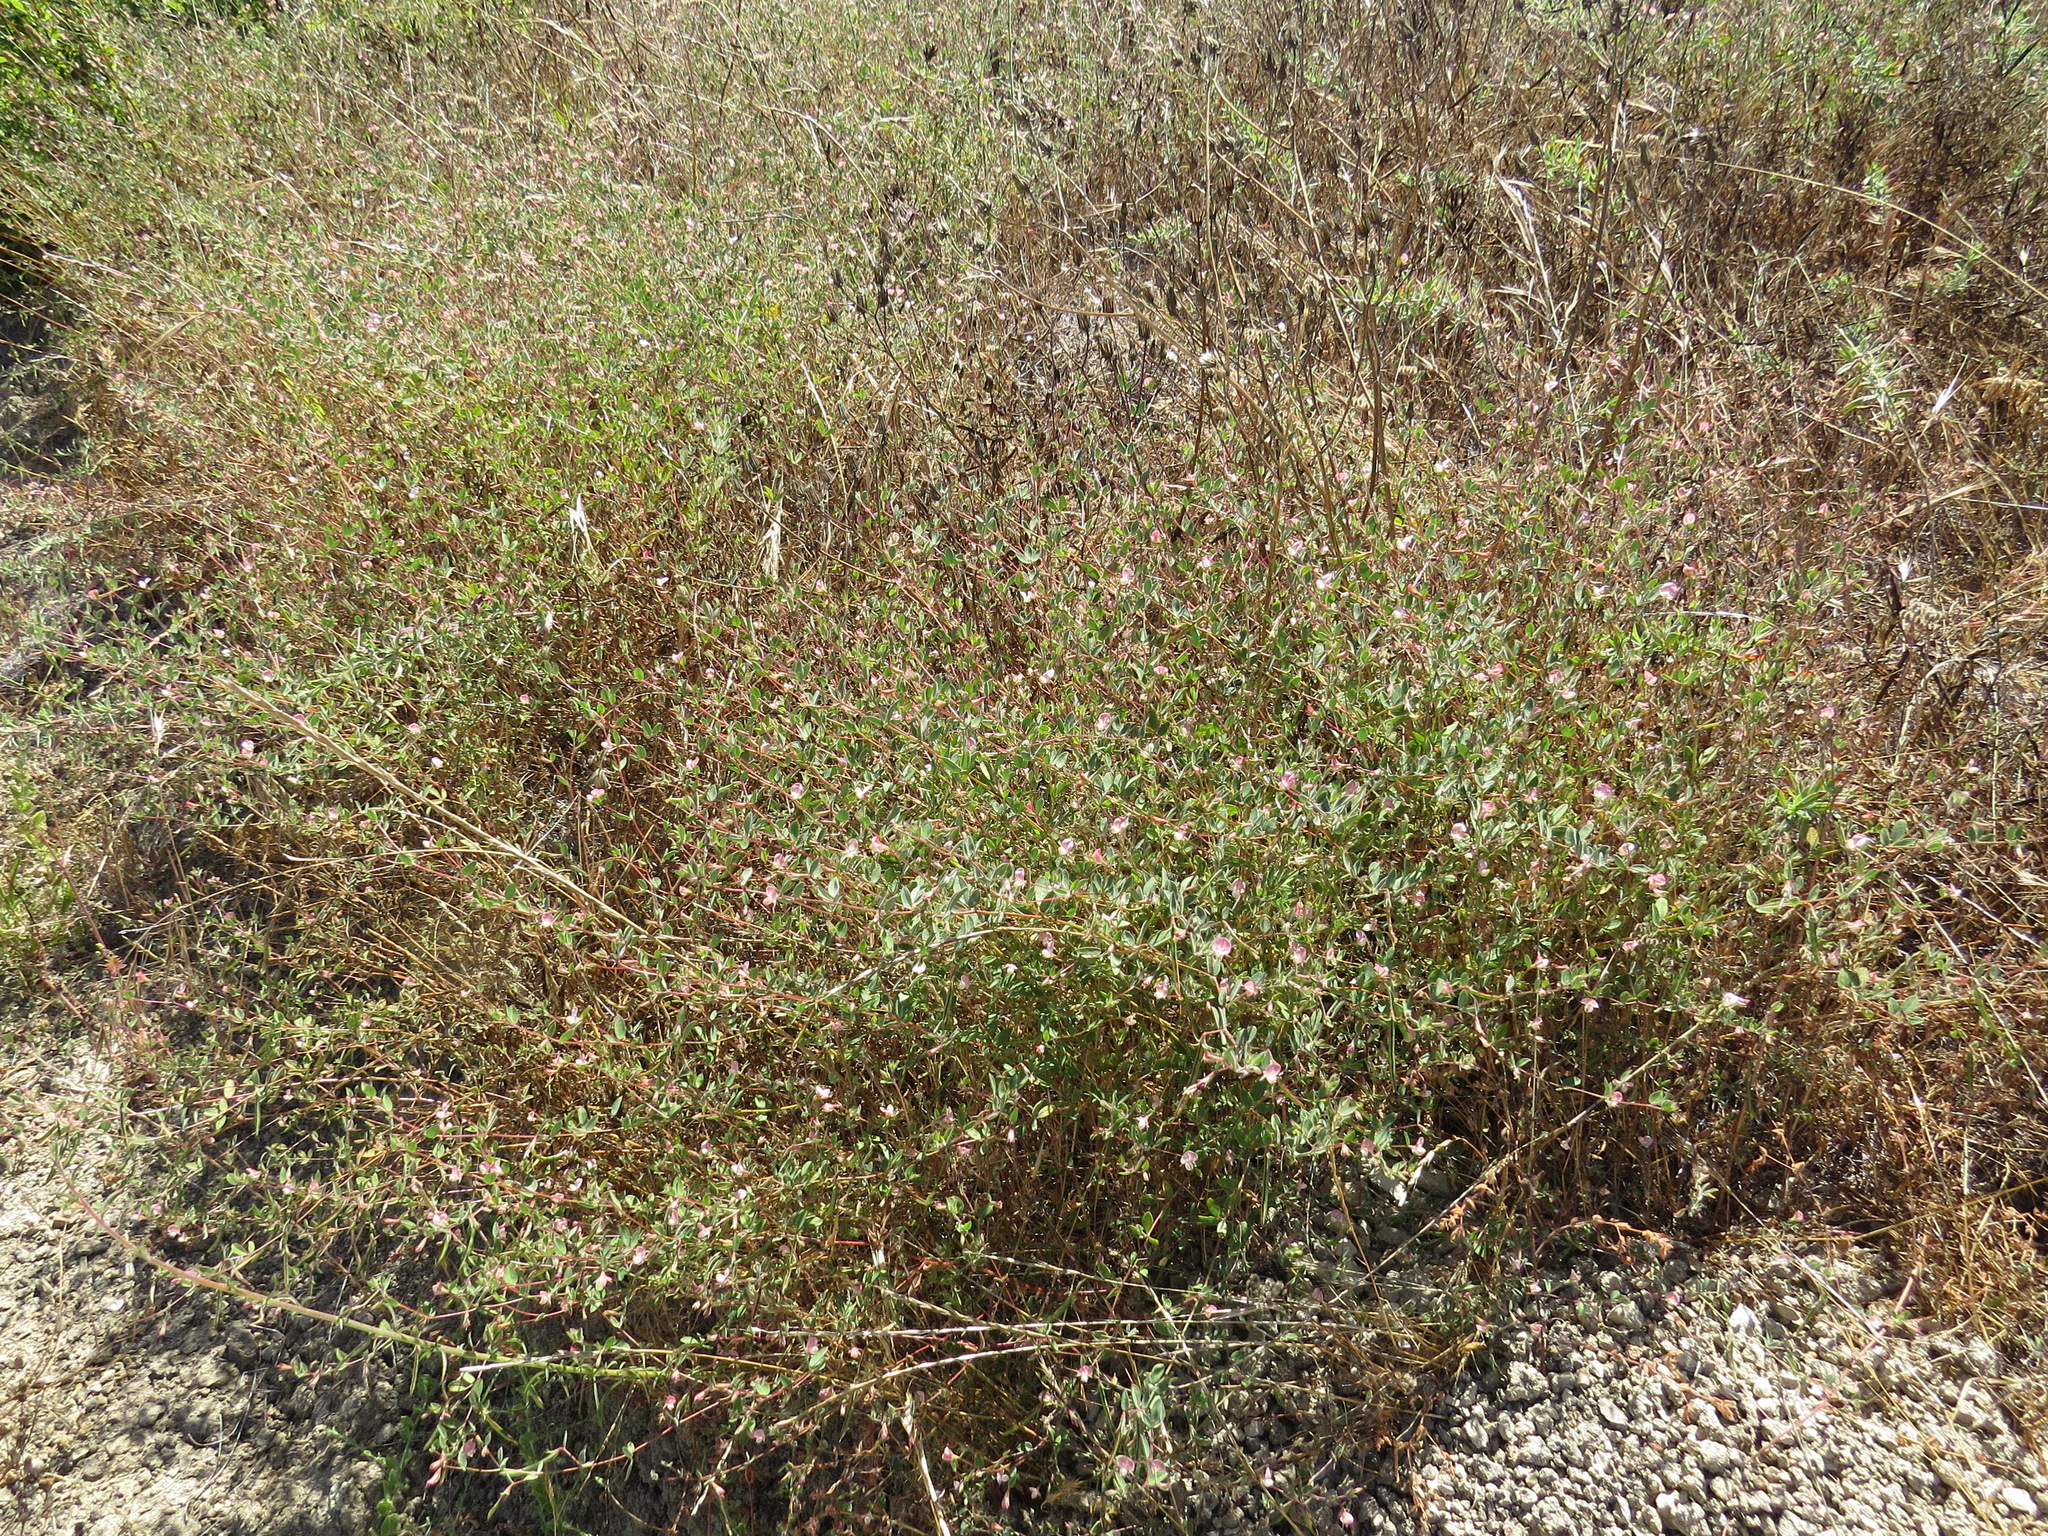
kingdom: Plantae
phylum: Tracheophyta
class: Magnoliopsida
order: Fabales
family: Fabaceae
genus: Acmispon
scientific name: Acmispon americanus
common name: American bird's-foot trefoil
